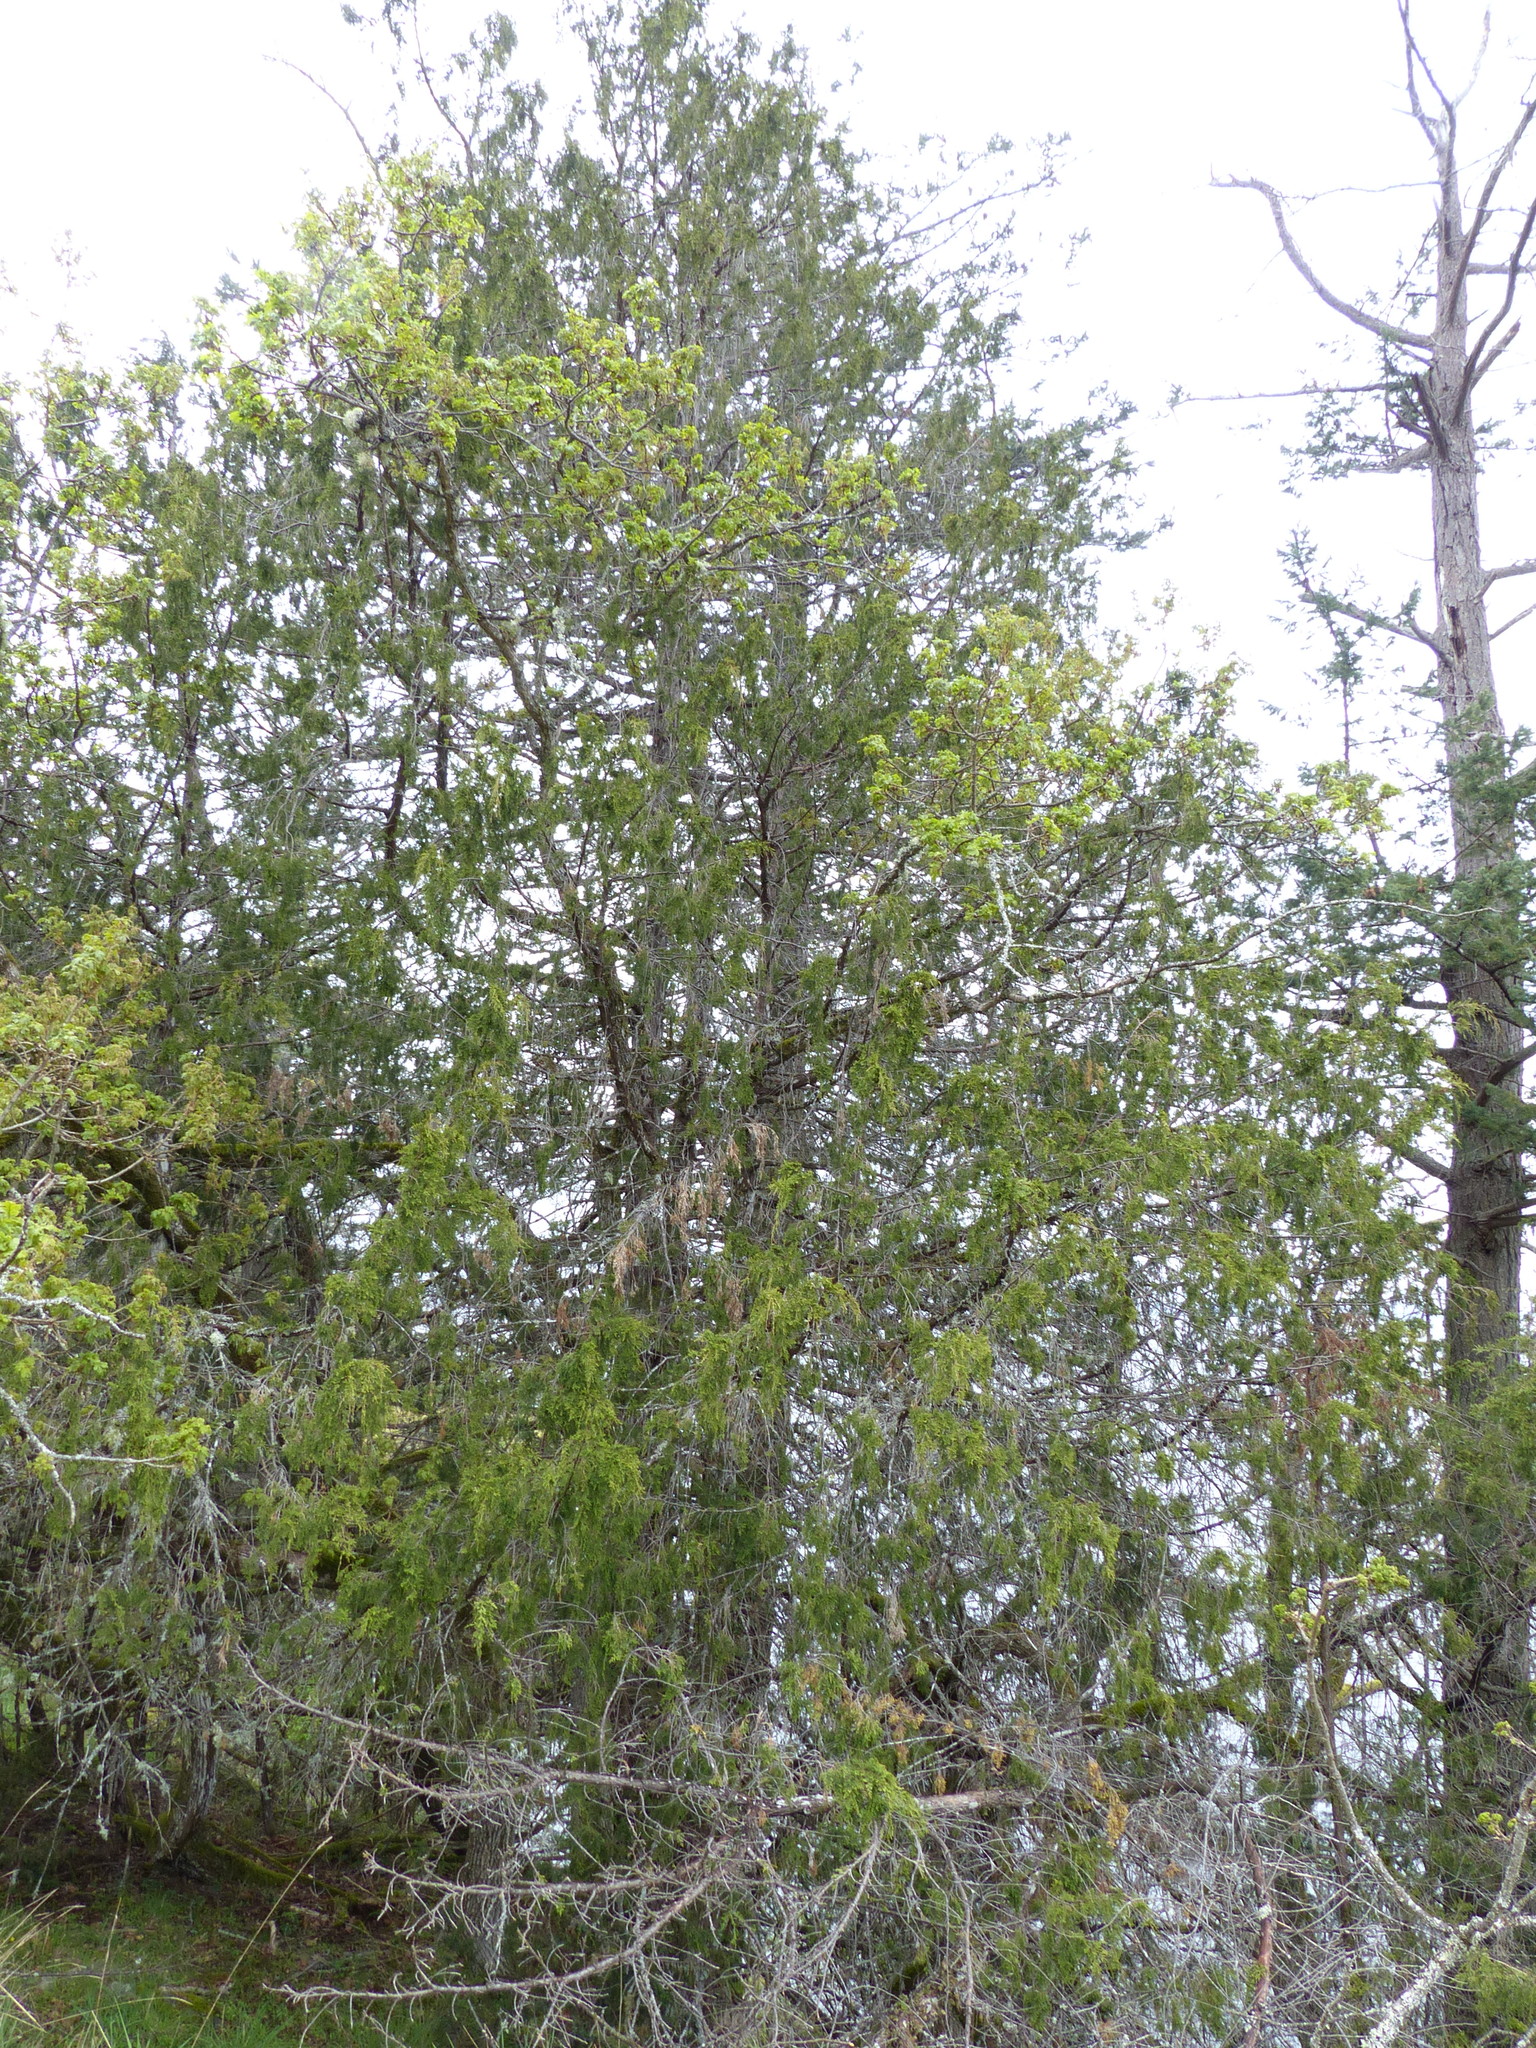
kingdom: Plantae
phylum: Tracheophyta
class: Pinopsida
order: Pinales
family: Cupressaceae
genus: Juniperus
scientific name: Juniperus scopulorum
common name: Rocky mountain juniper
